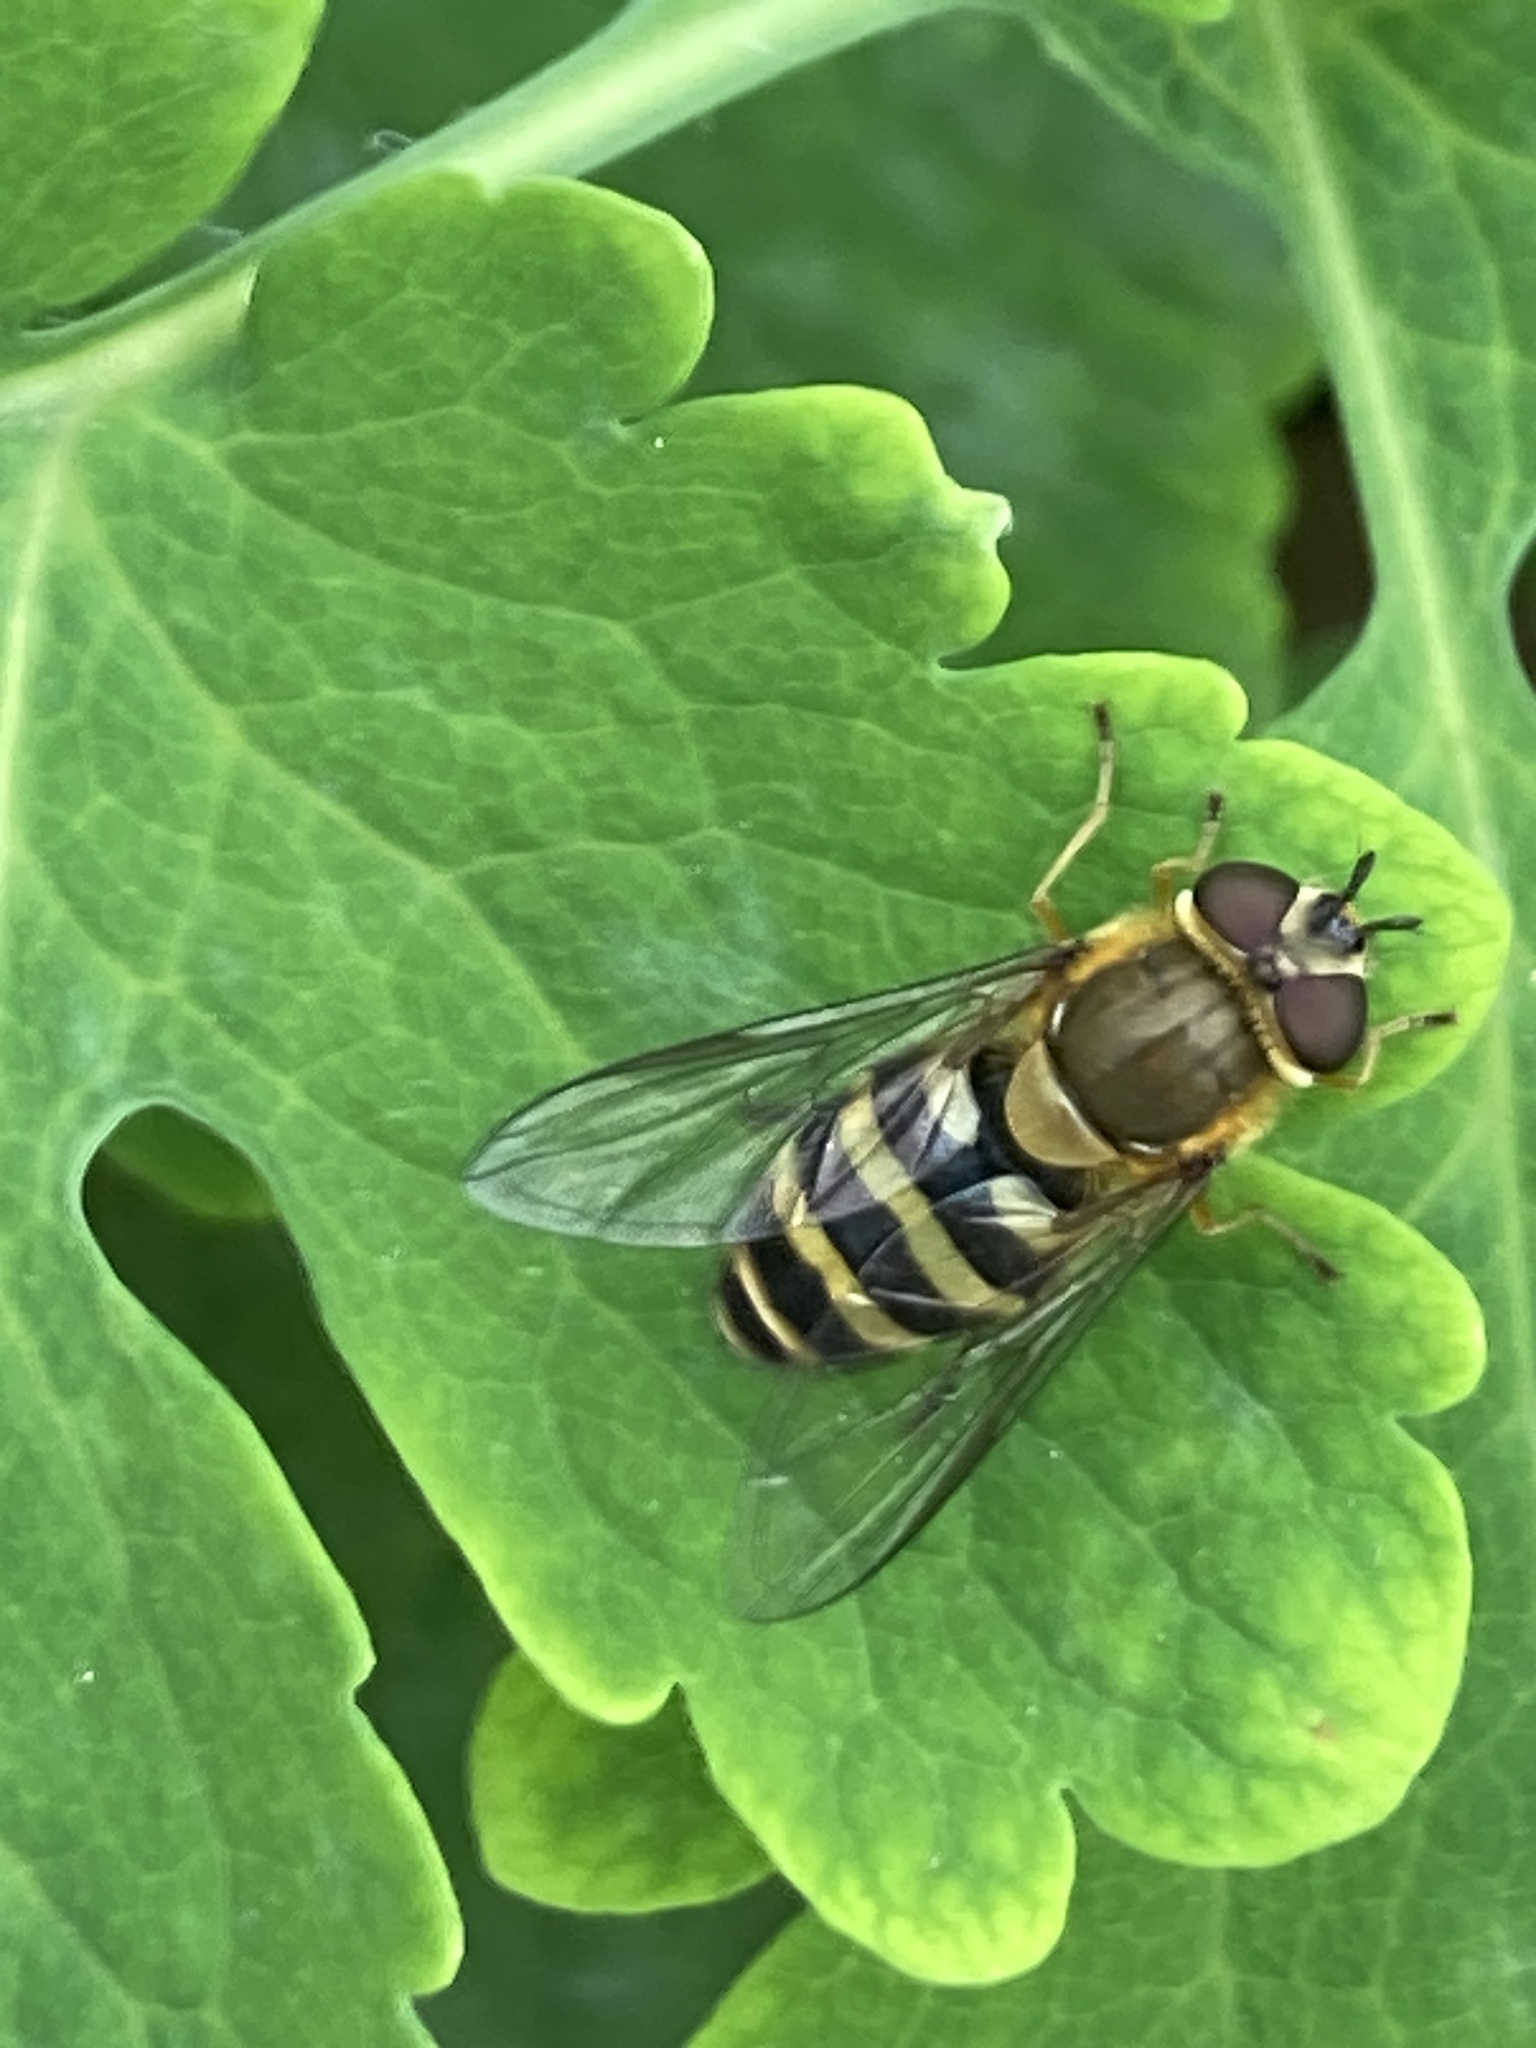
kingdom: Animalia
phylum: Arthropoda
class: Insecta
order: Diptera
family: Syrphidae
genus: Syrphus
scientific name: Syrphus
